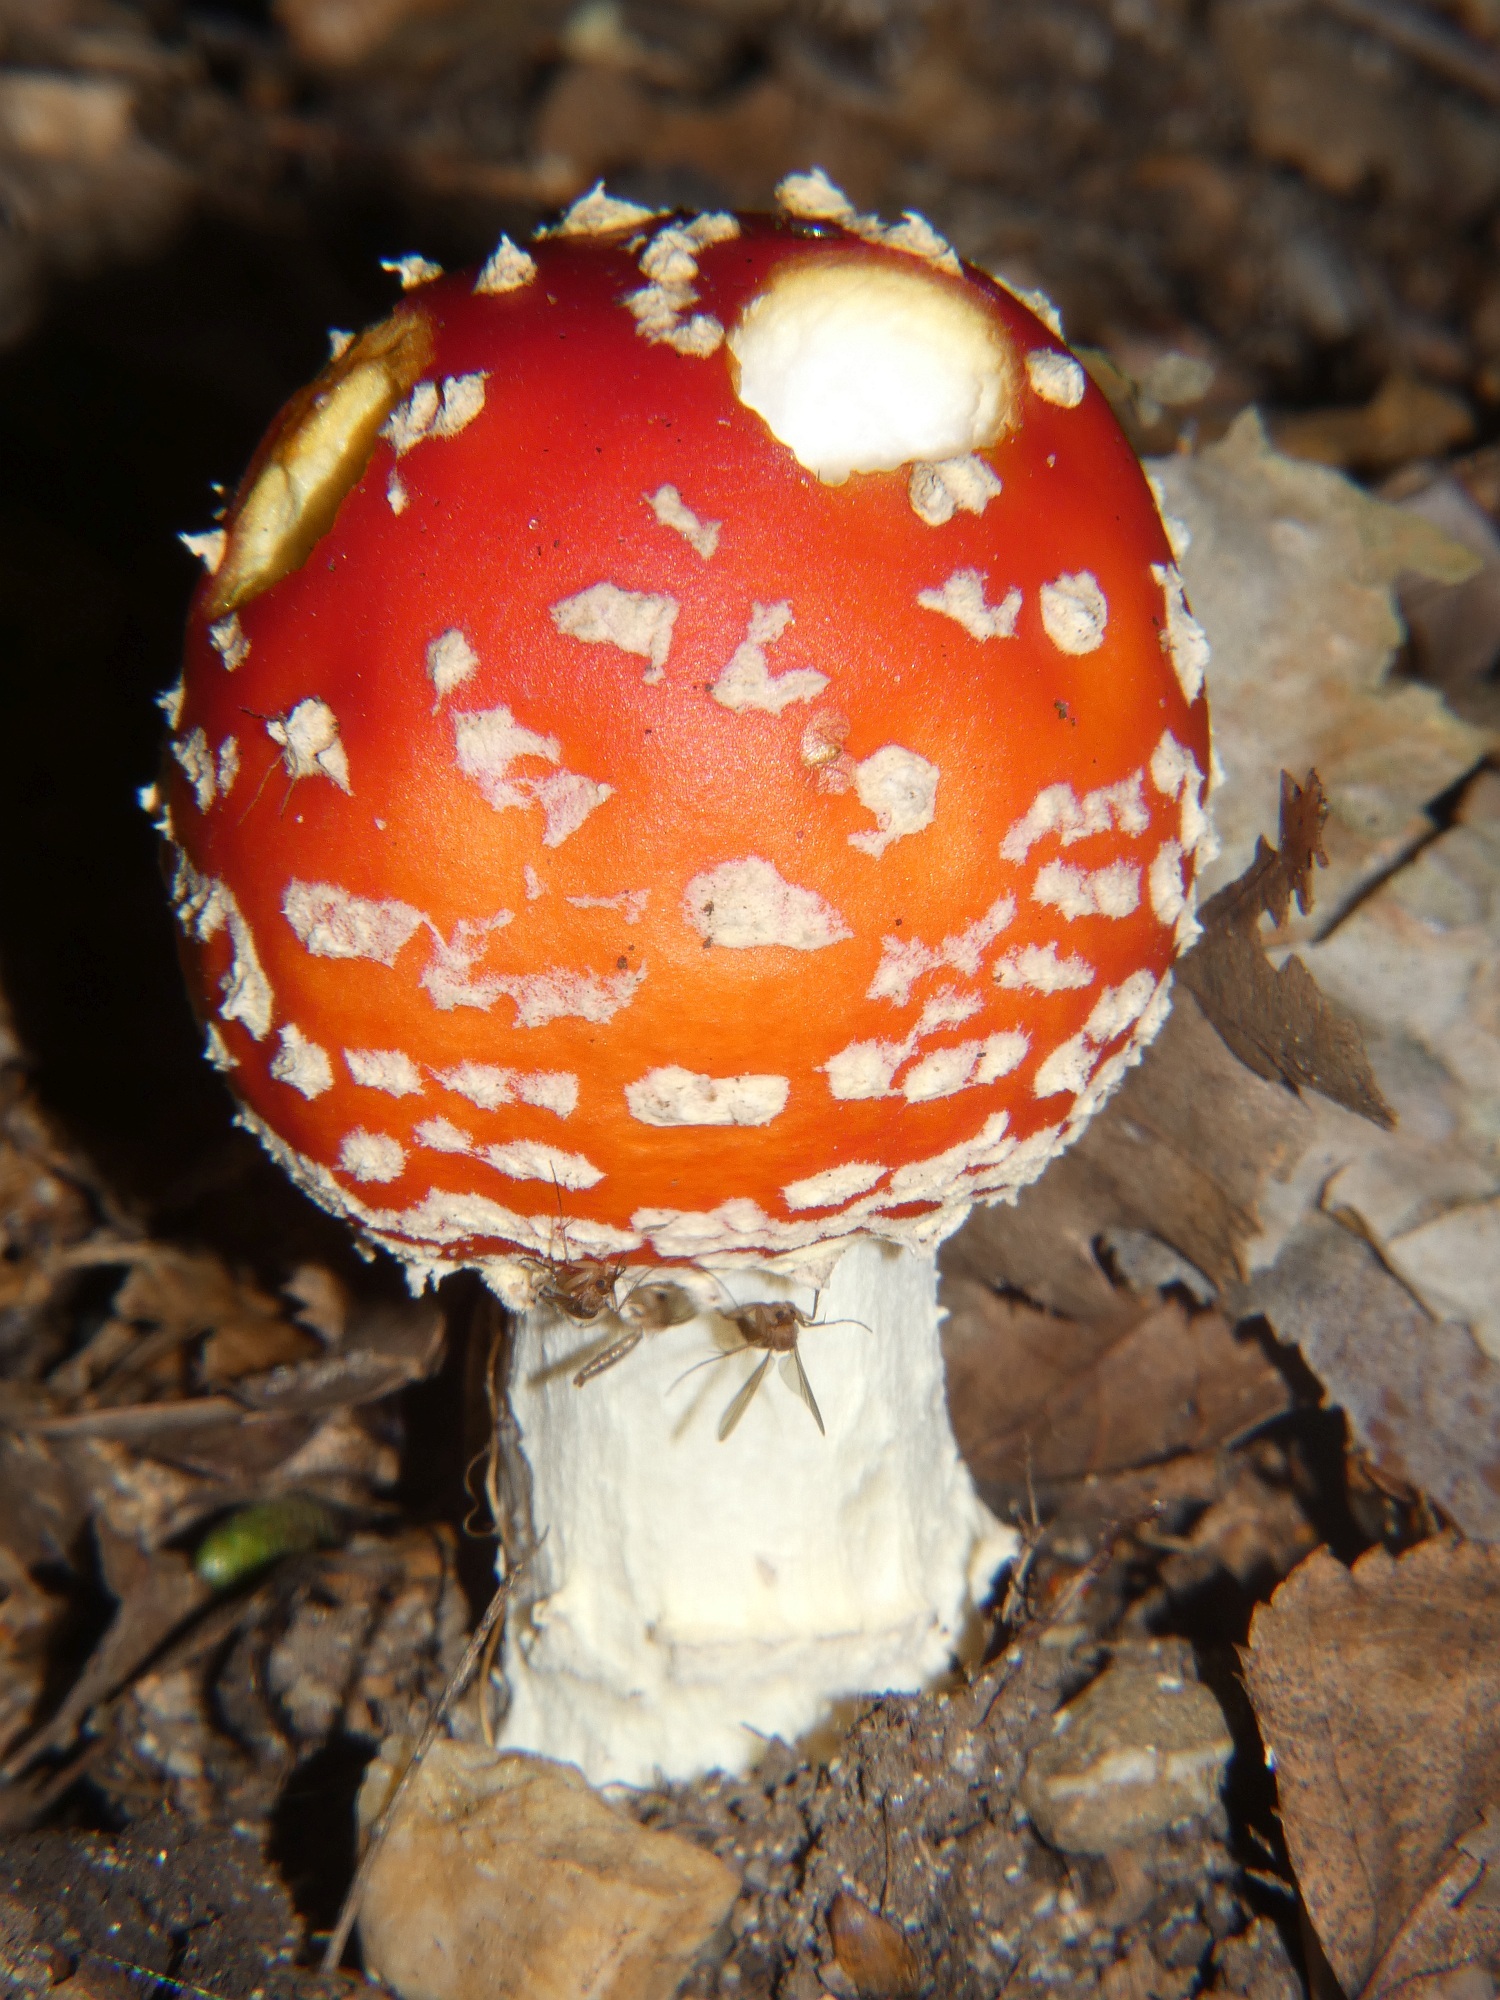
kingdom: Fungi
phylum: Basidiomycota
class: Agaricomycetes
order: Agaricales
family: Amanitaceae
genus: Amanita
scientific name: Amanita muscaria
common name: Fly agaric
